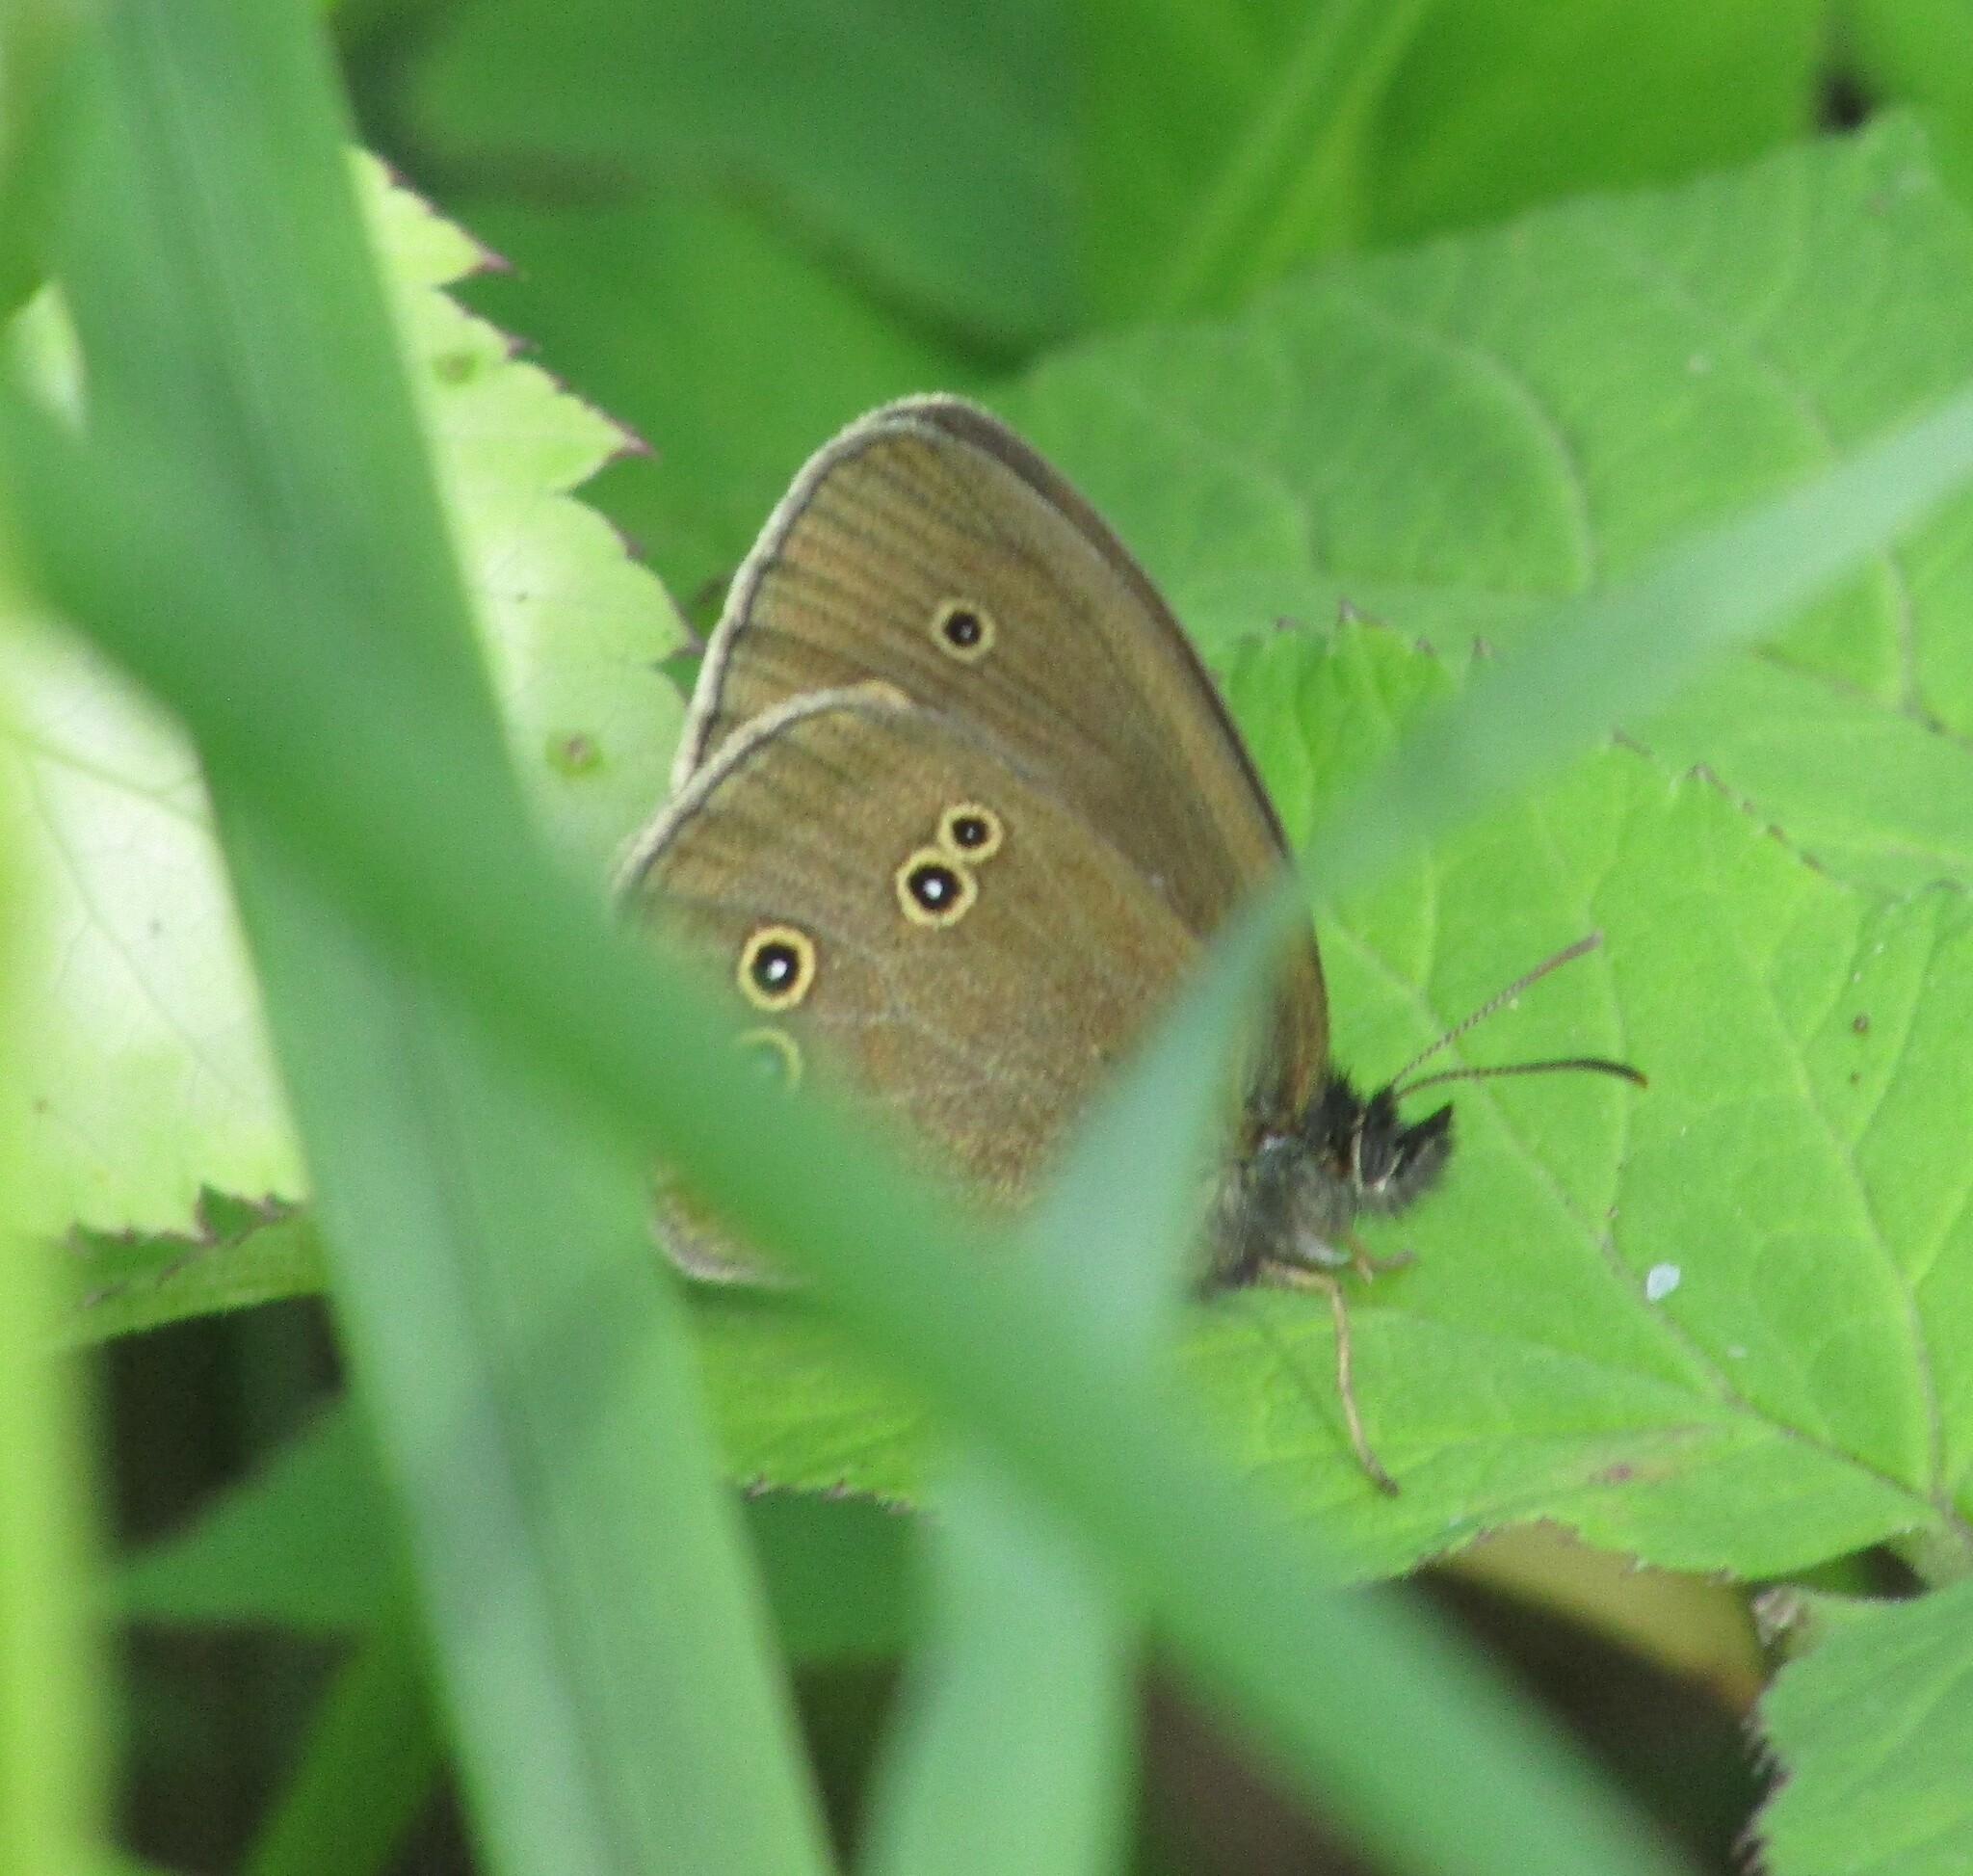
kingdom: Animalia
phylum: Arthropoda
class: Insecta
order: Lepidoptera
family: Nymphalidae
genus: Aphantopus
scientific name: Aphantopus hyperantus
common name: Ringlet
